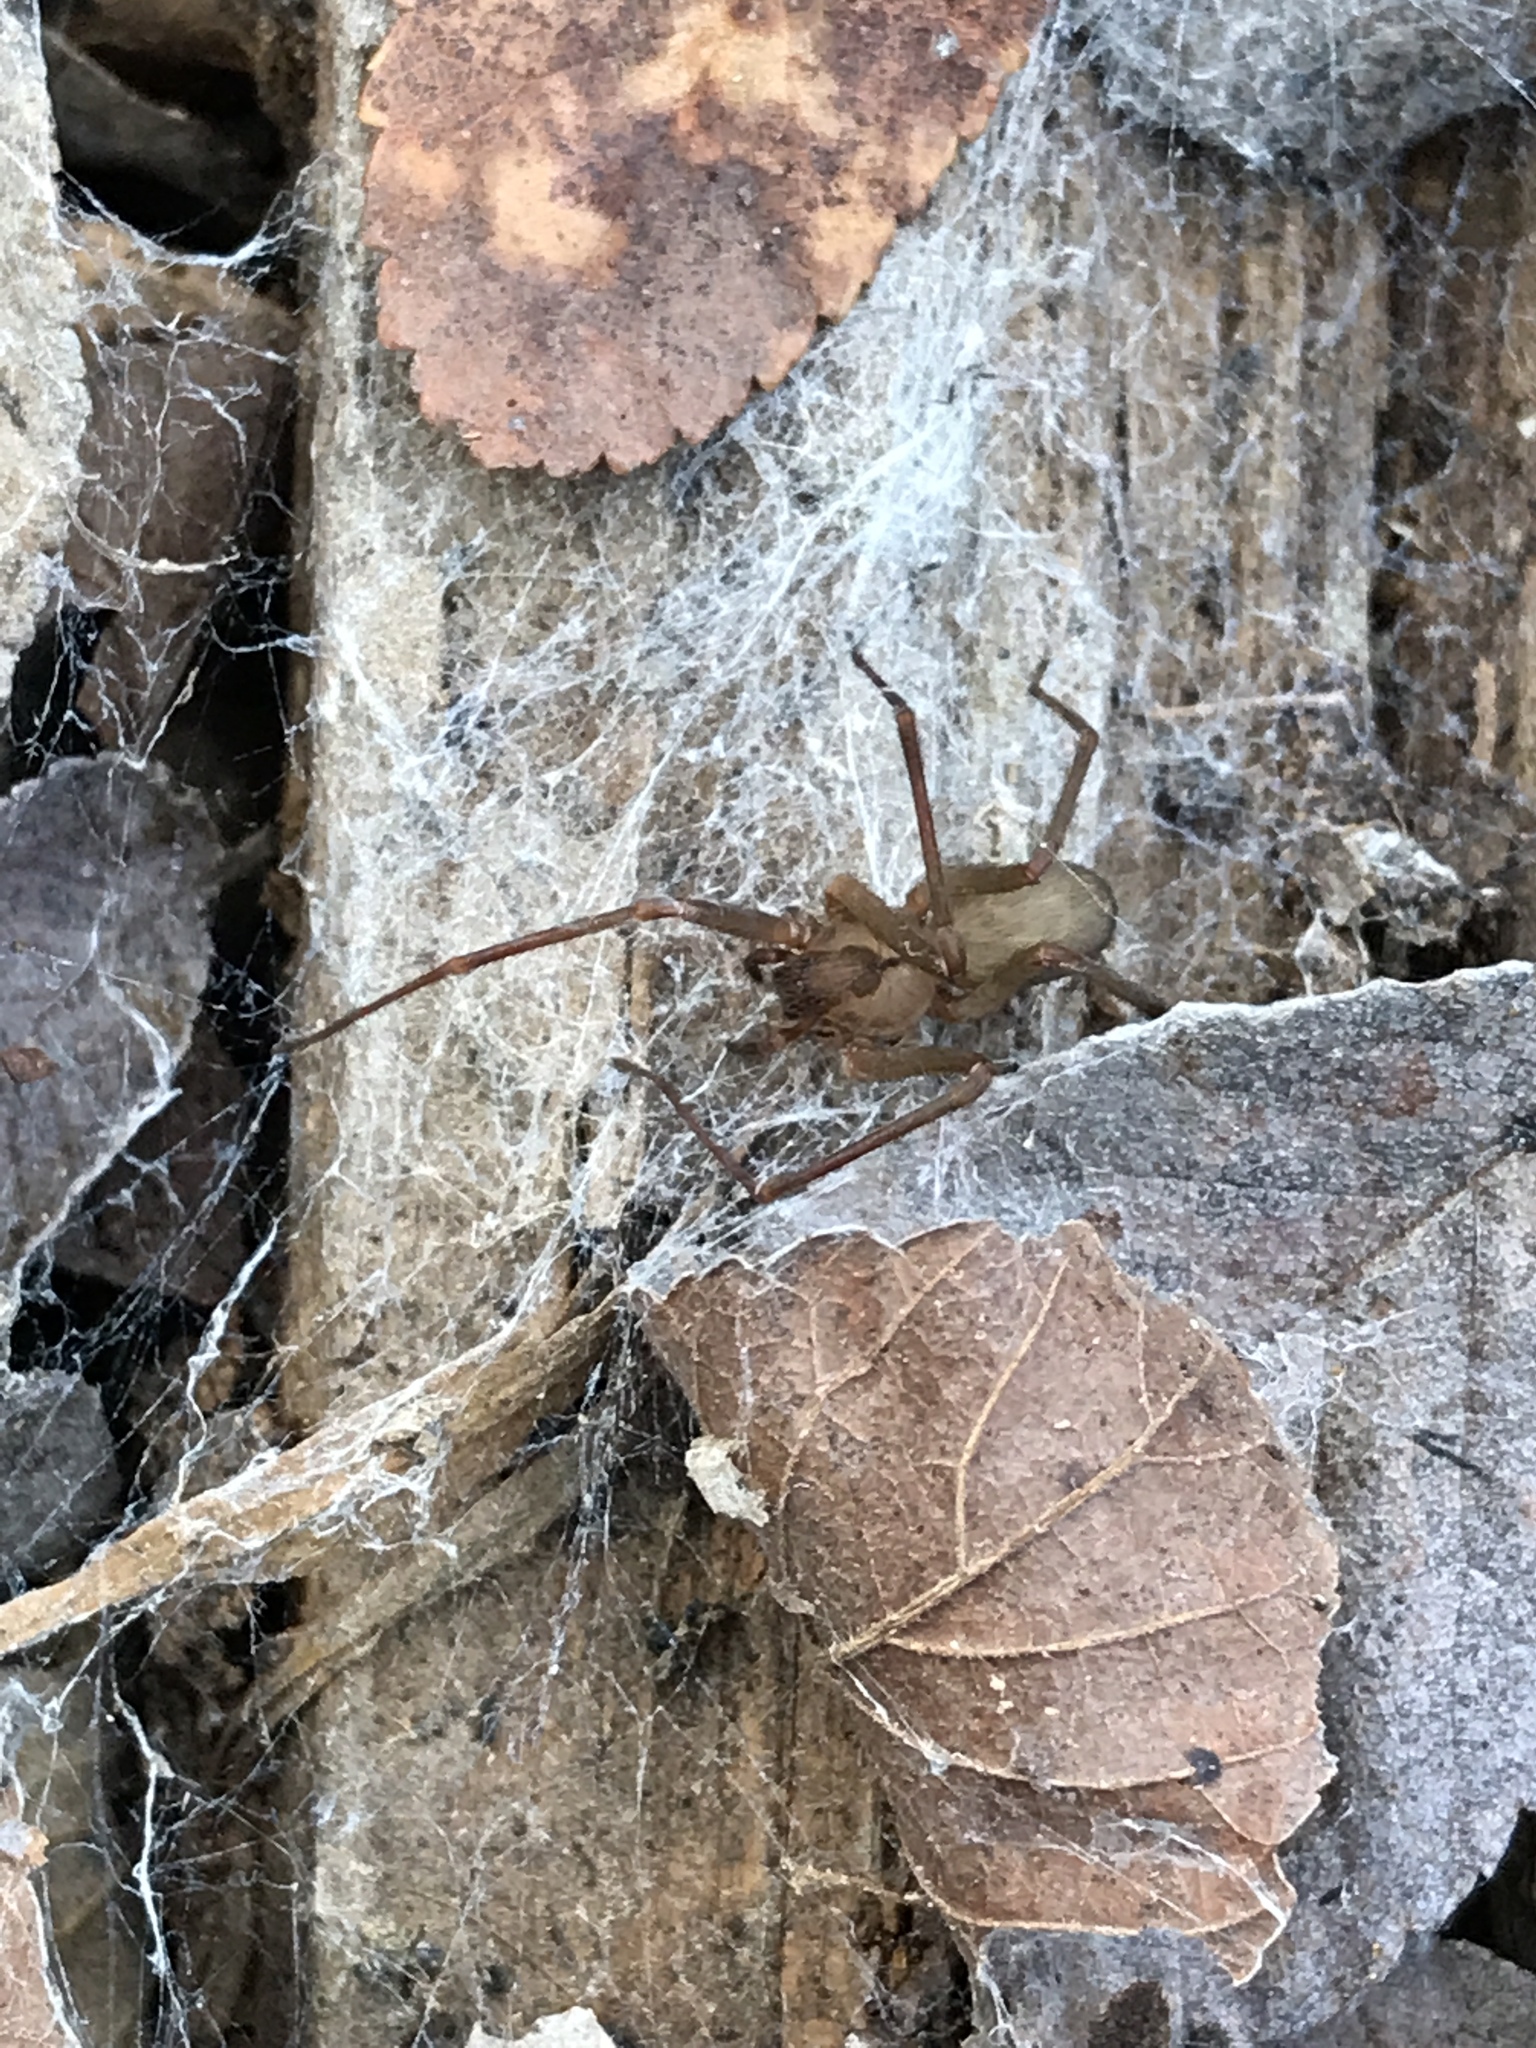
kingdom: Animalia
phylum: Arthropoda
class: Arachnida
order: Araneae
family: Sicariidae
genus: Loxosceles
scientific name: Loxosceles reclusa
